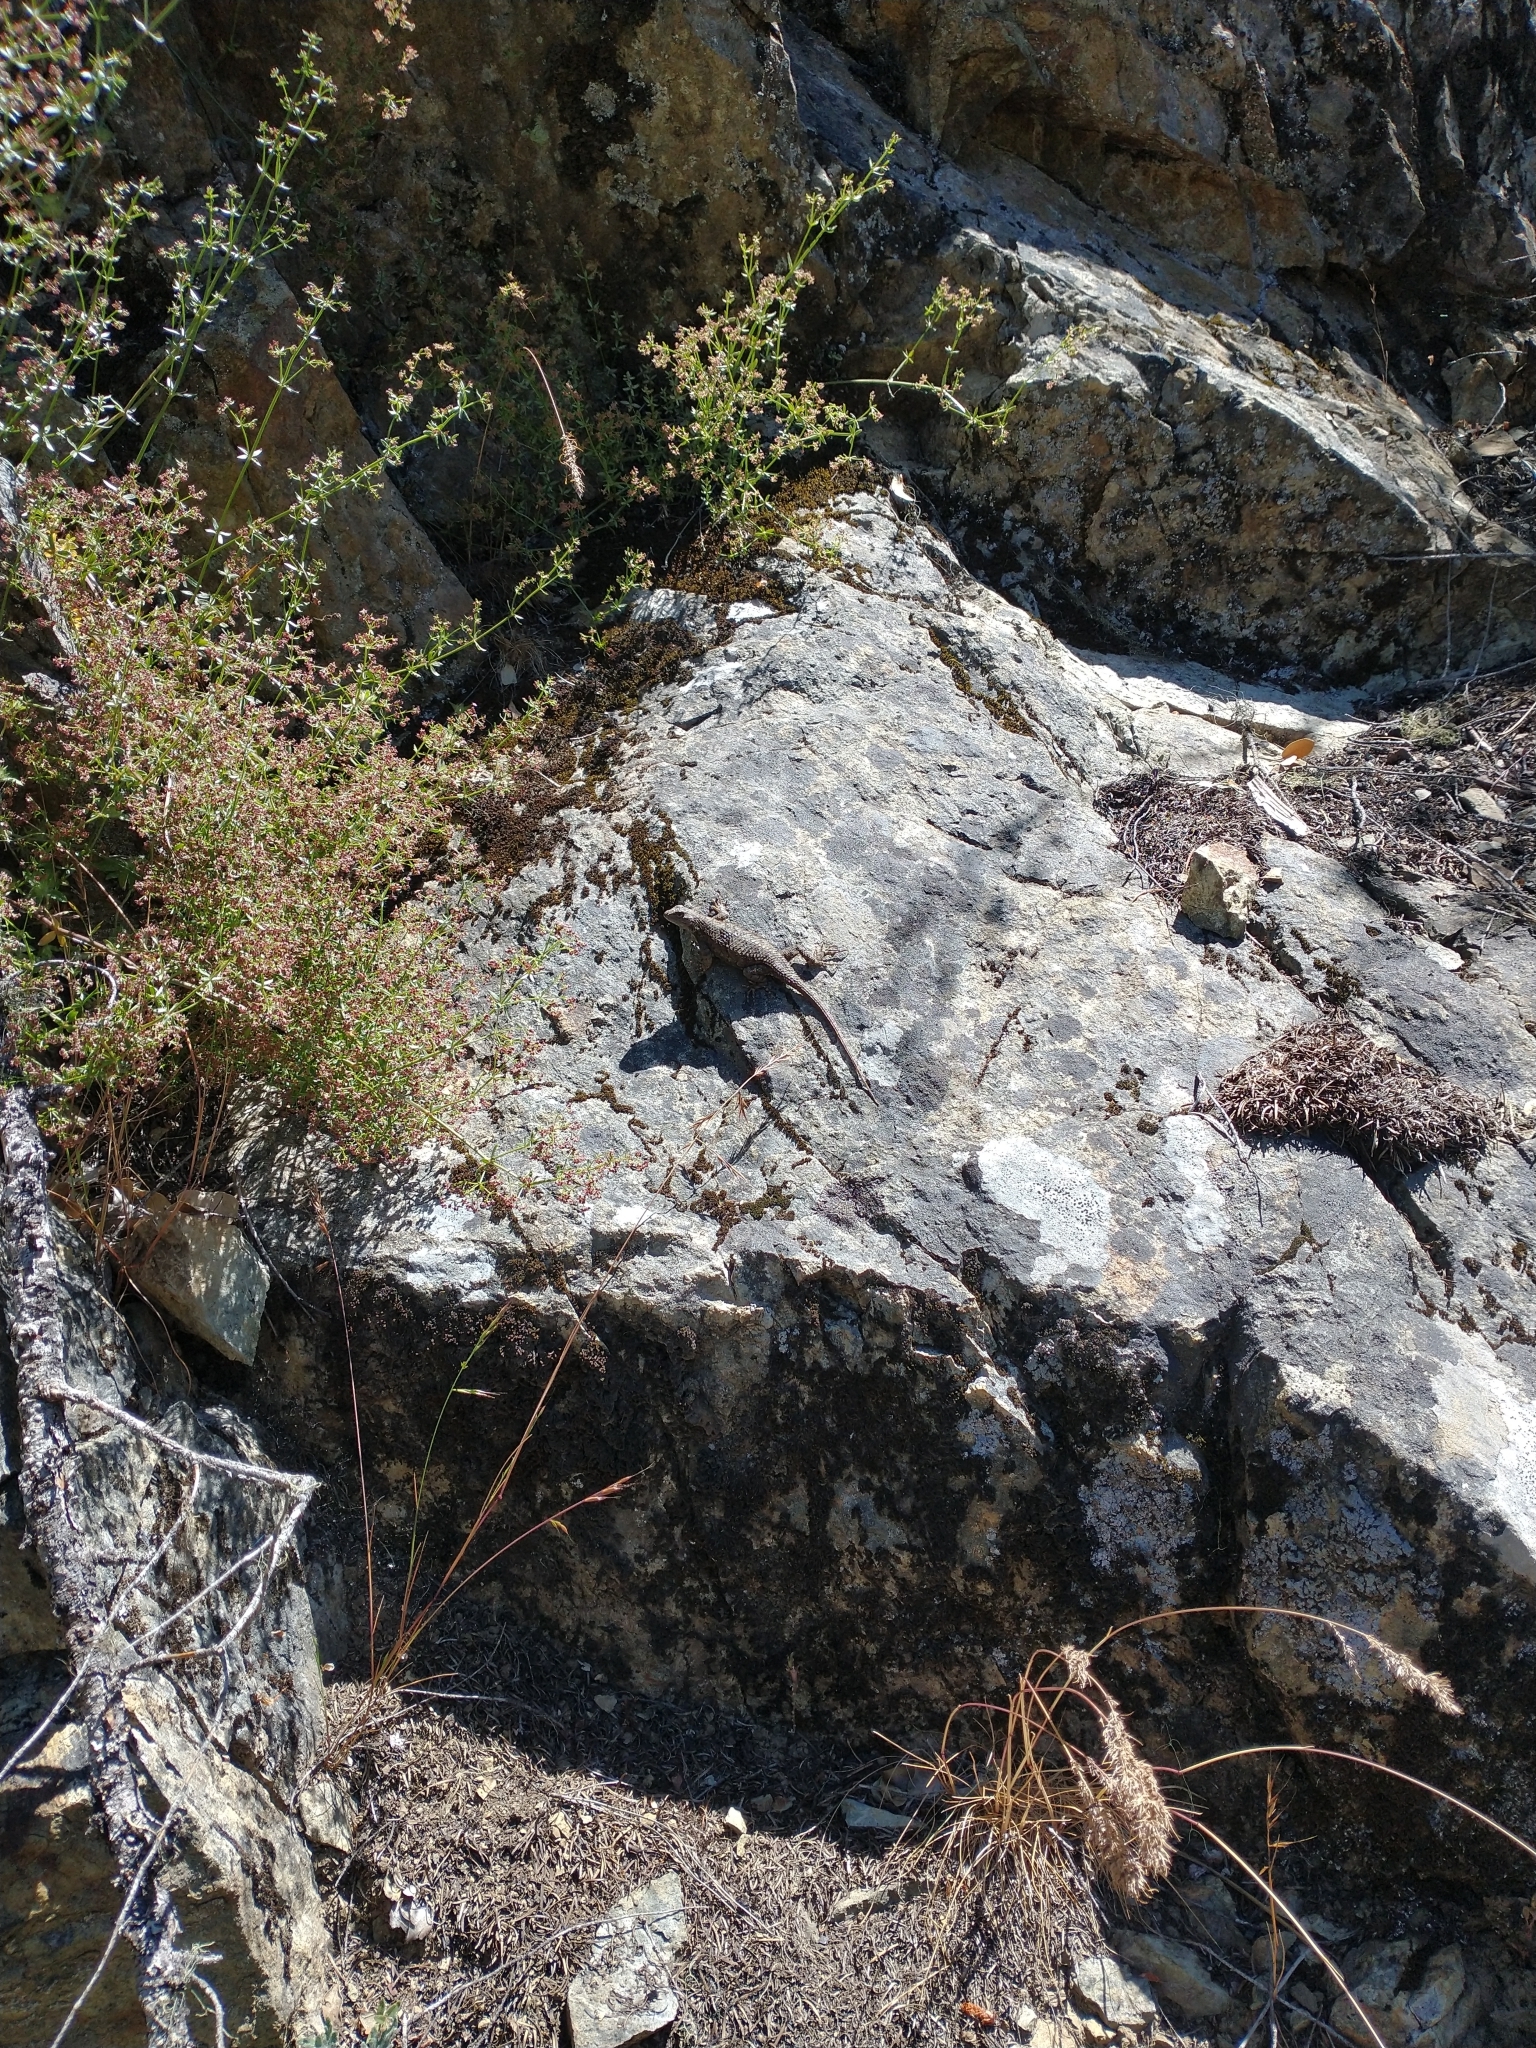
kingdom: Animalia
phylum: Chordata
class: Squamata
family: Phrynosomatidae
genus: Sceloporus
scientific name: Sceloporus occidentalis
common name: Western fence lizard
